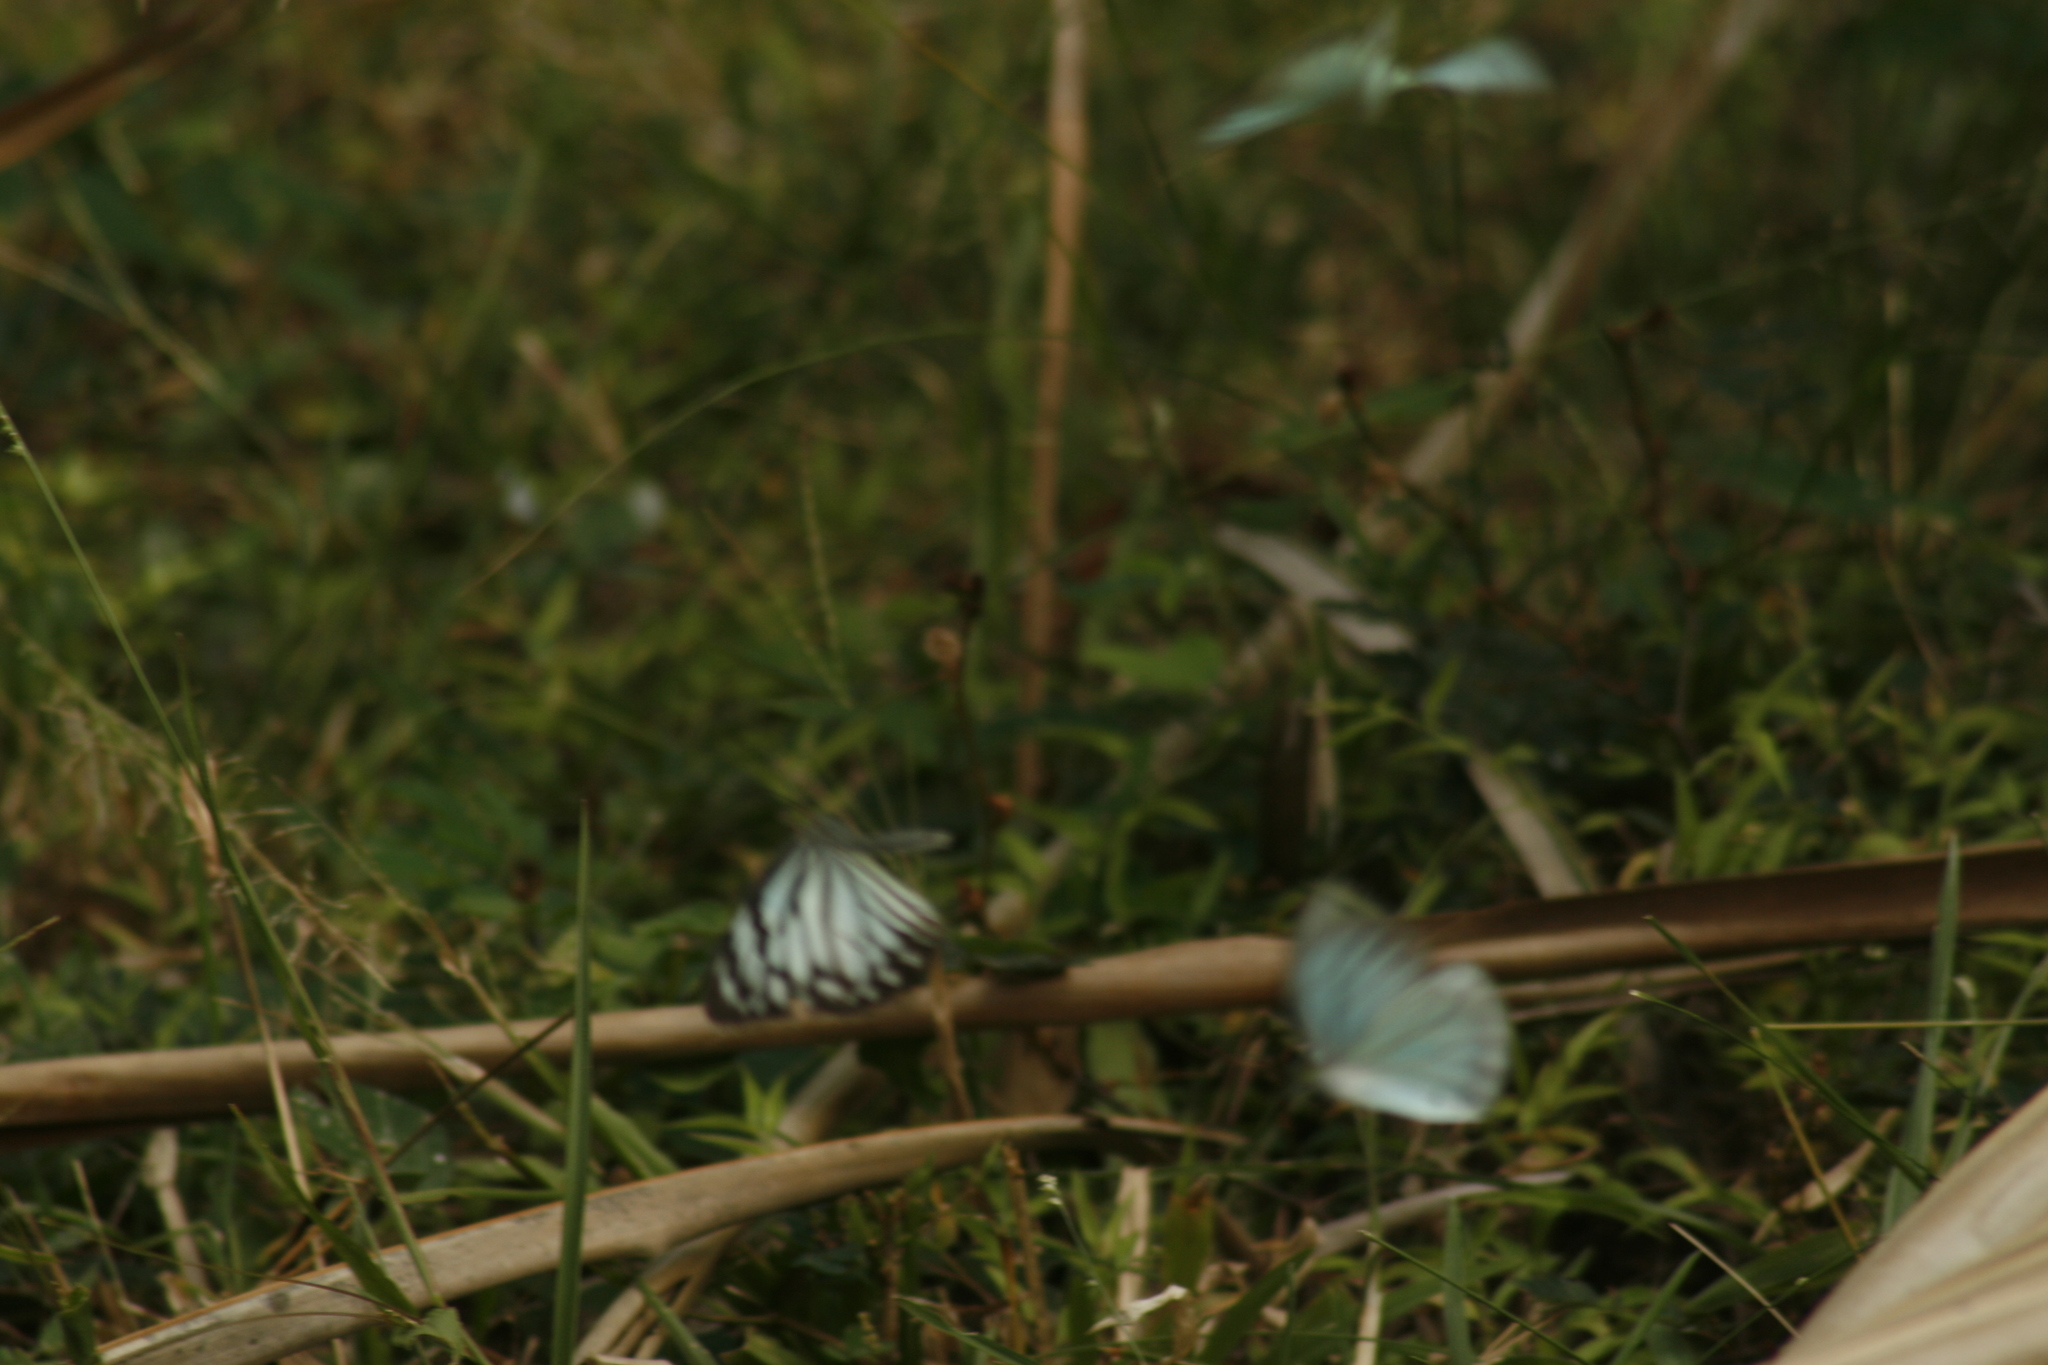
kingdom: Animalia
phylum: Arthropoda
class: Insecta
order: Lepidoptera
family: Pieridae
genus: Pareronia
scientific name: Pareronia hippia
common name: Indian wanderer
